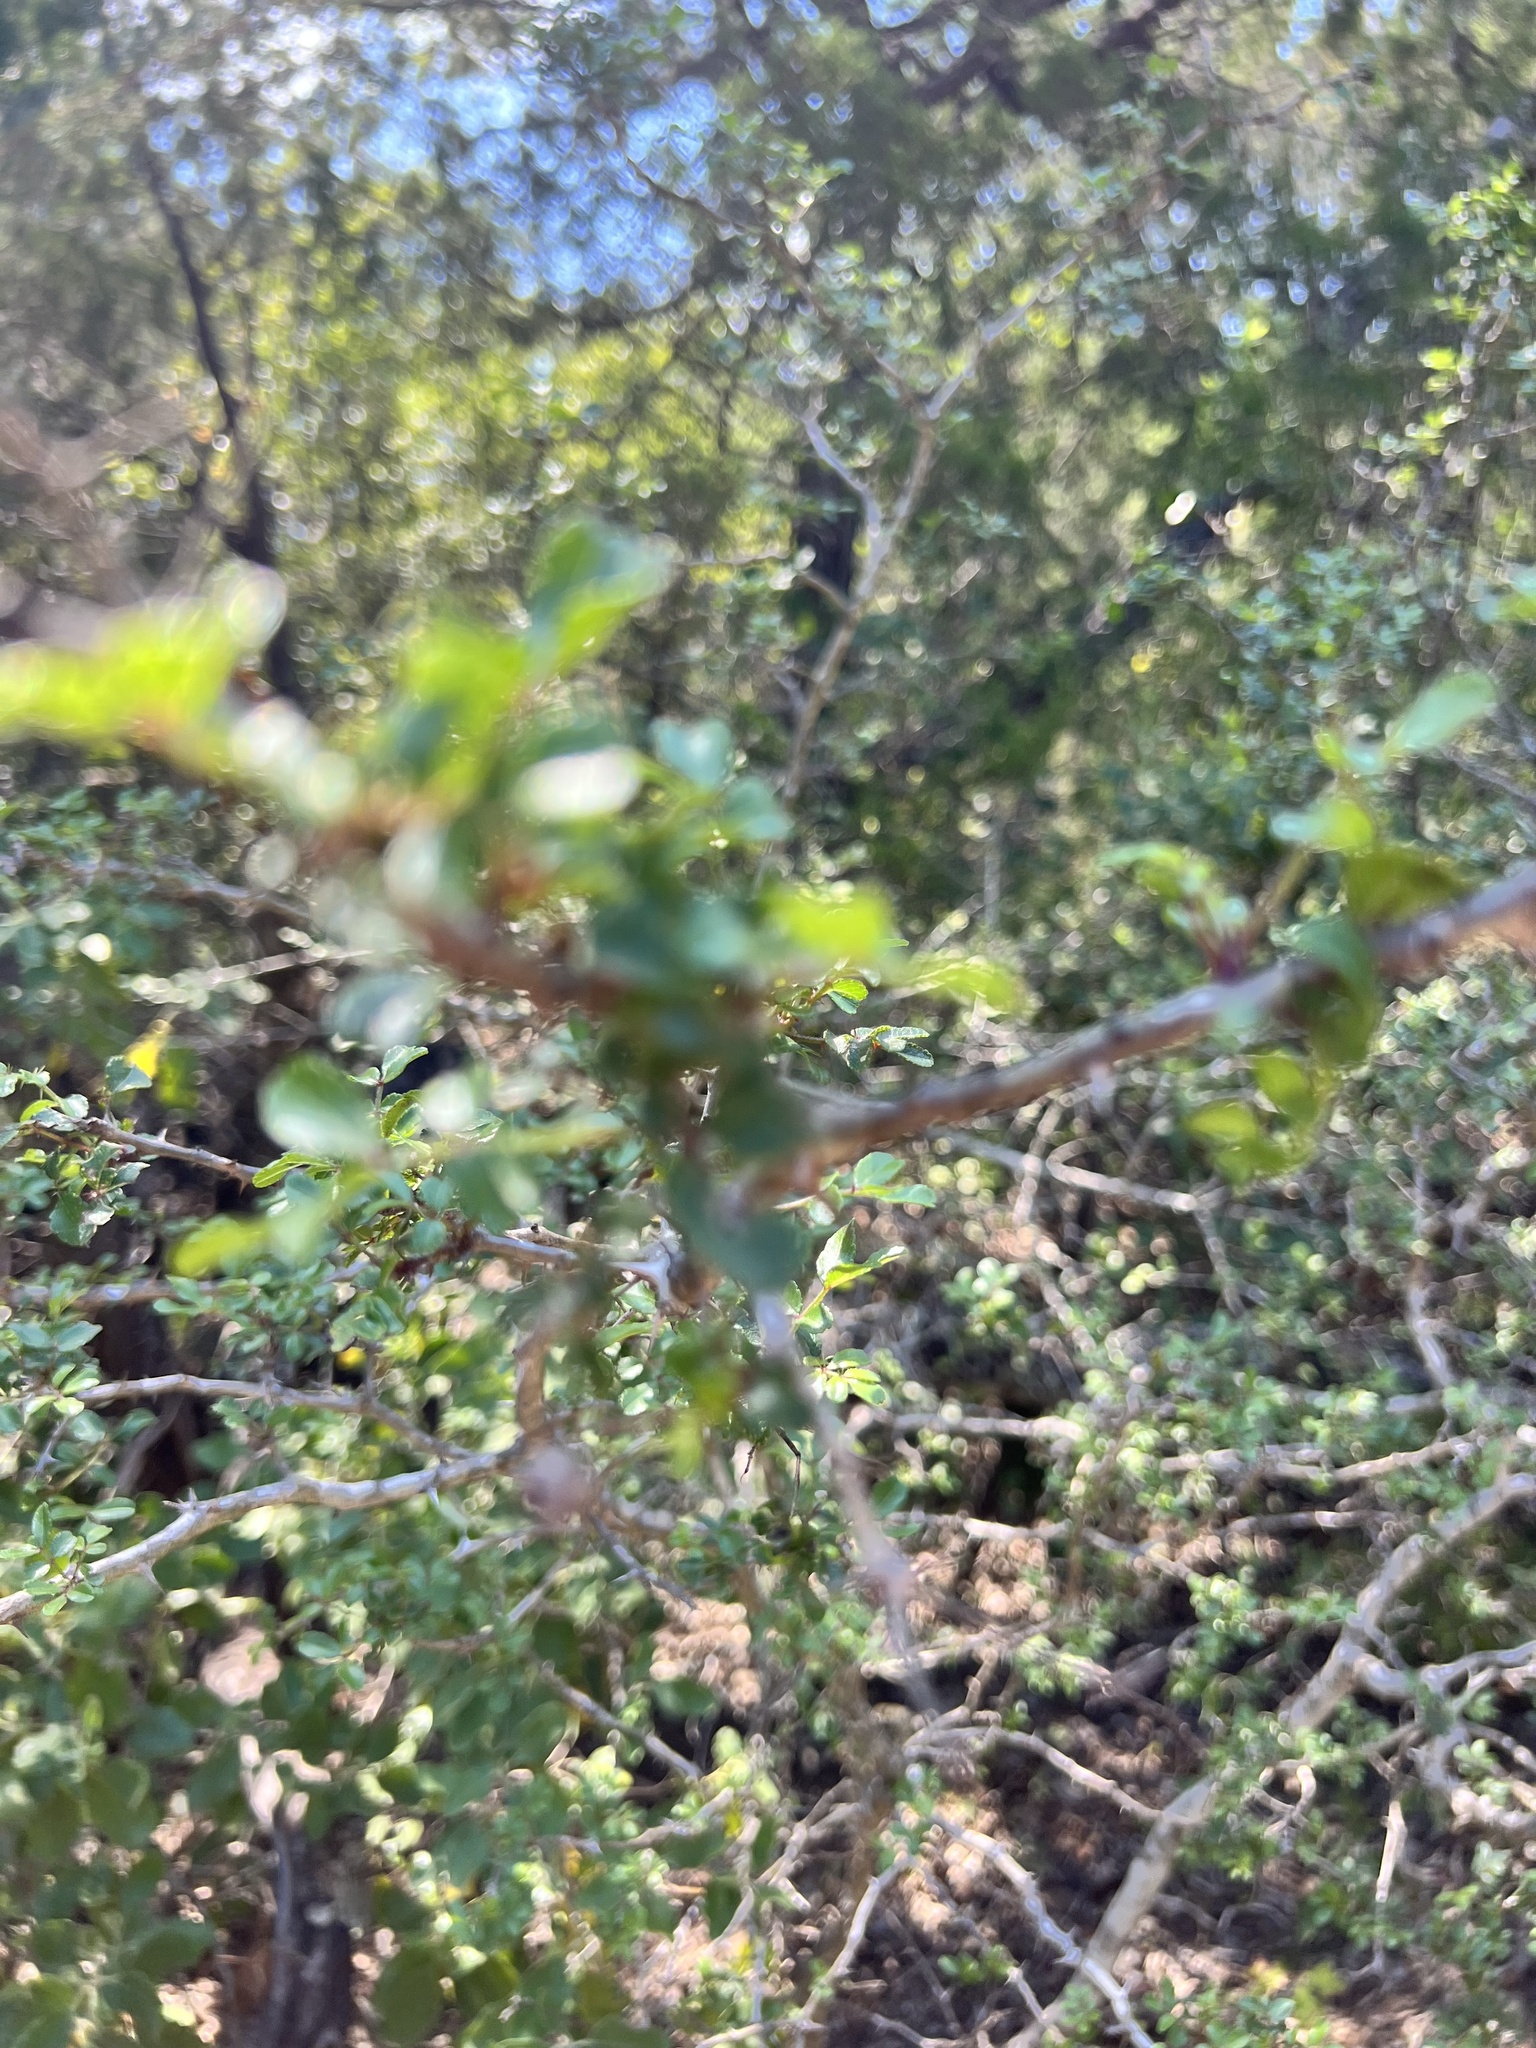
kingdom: Plantae
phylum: Tracheophyta
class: Magnoliopsida
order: Sapindales
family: Rutaceae
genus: Zanthoxylum
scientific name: Zanthoxylum clava-herculis
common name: Hercules'-club
